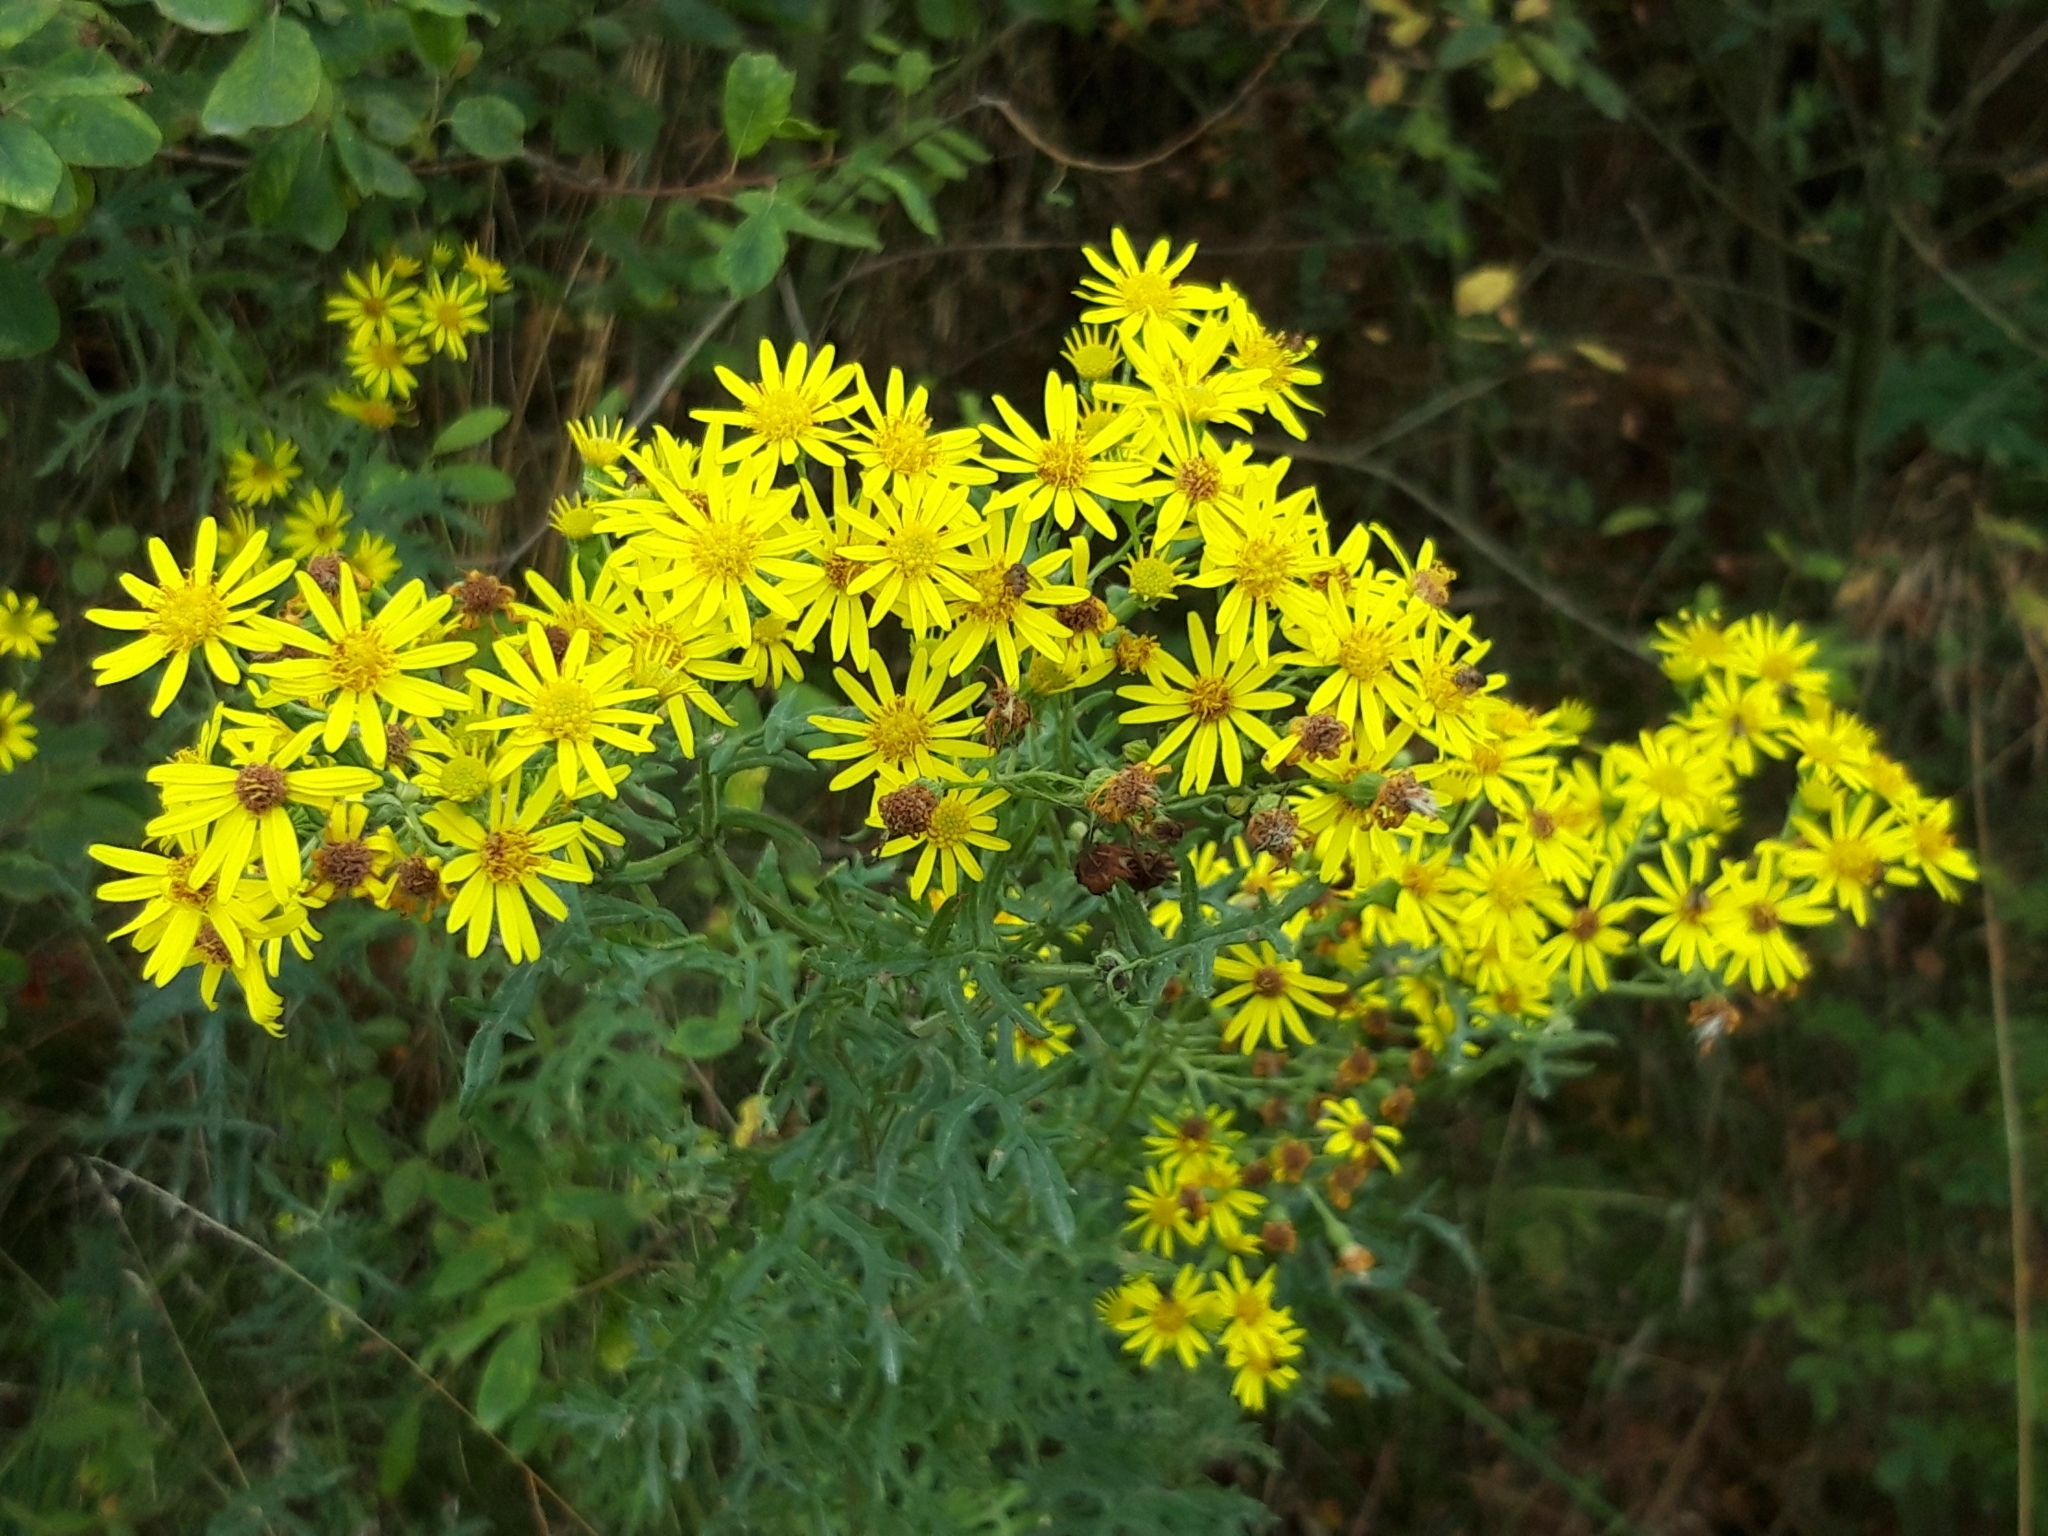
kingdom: Plantae
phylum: Tracheophyta
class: Magnoliopsida
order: Asterales
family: Asteraceae
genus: Jacobaea
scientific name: Jacobaea vulgaris
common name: Stinking willie
